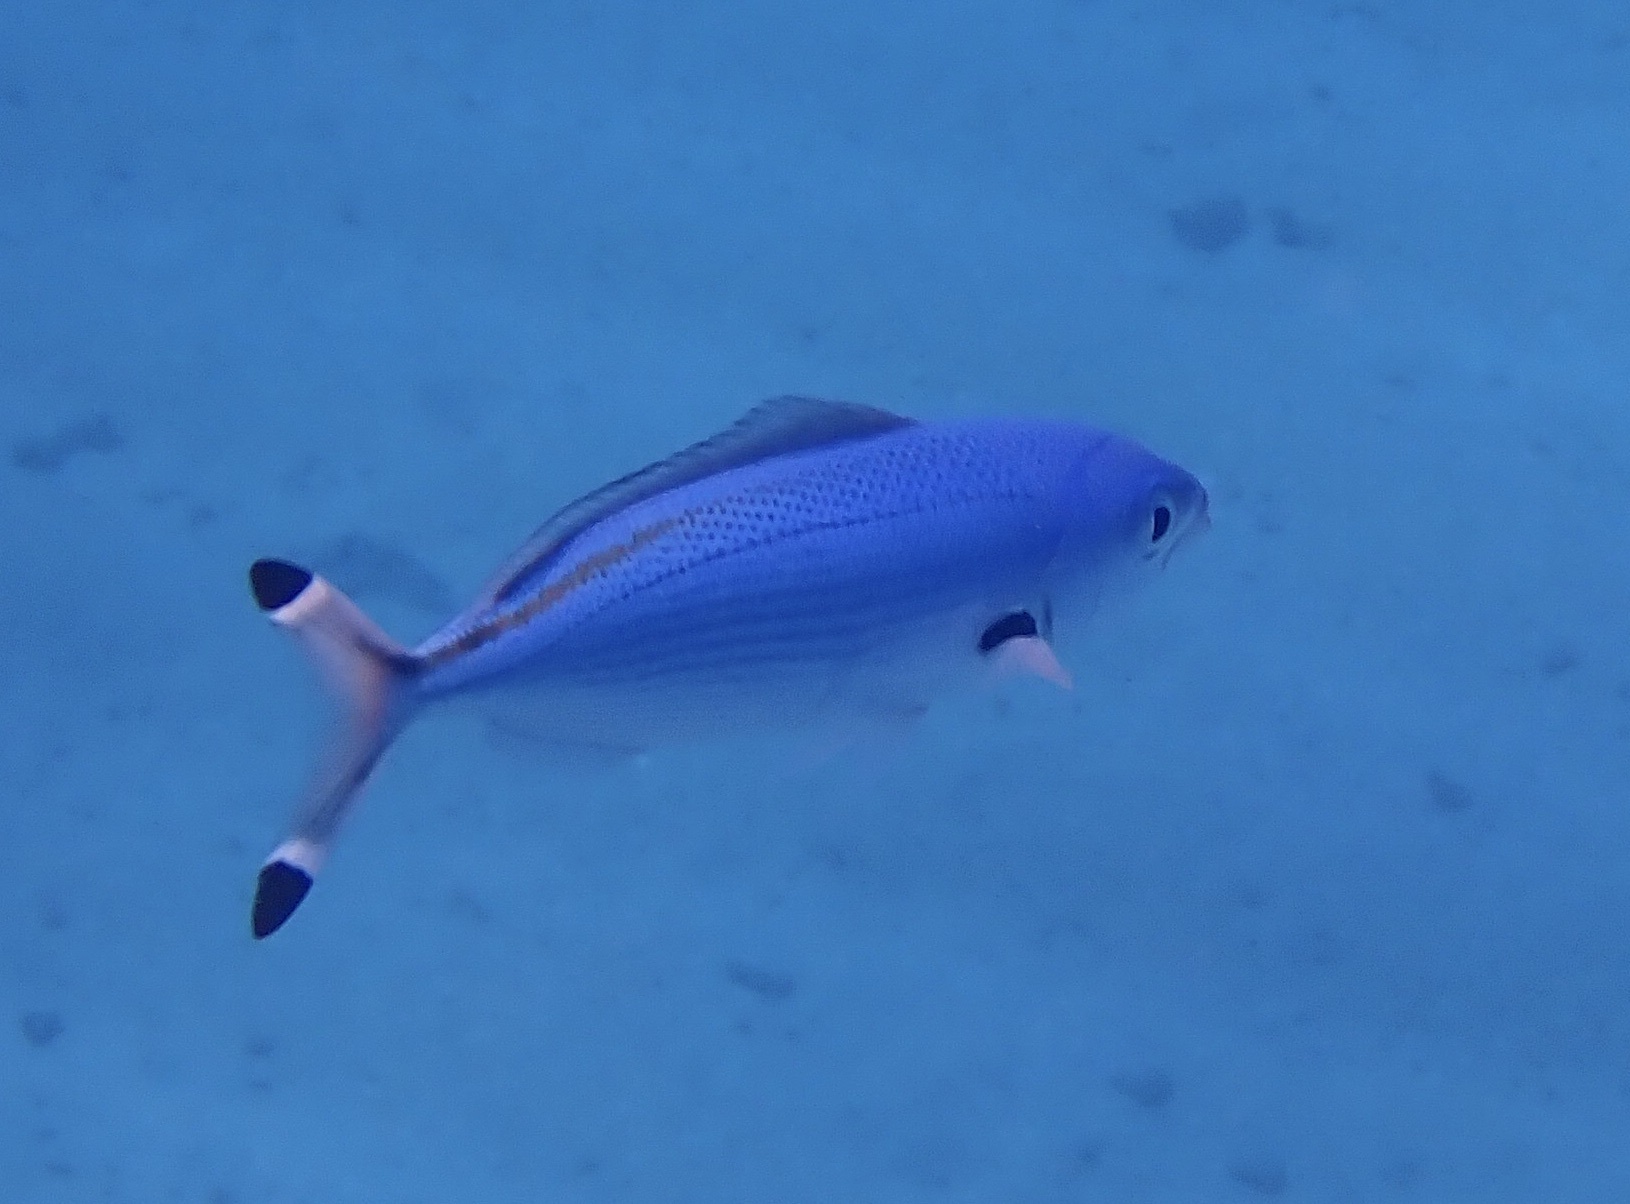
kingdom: Animalia
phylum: Chordata
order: Perciformes
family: Caesionidae
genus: Caesio
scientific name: Caesio suevica
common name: Suez fusilier
